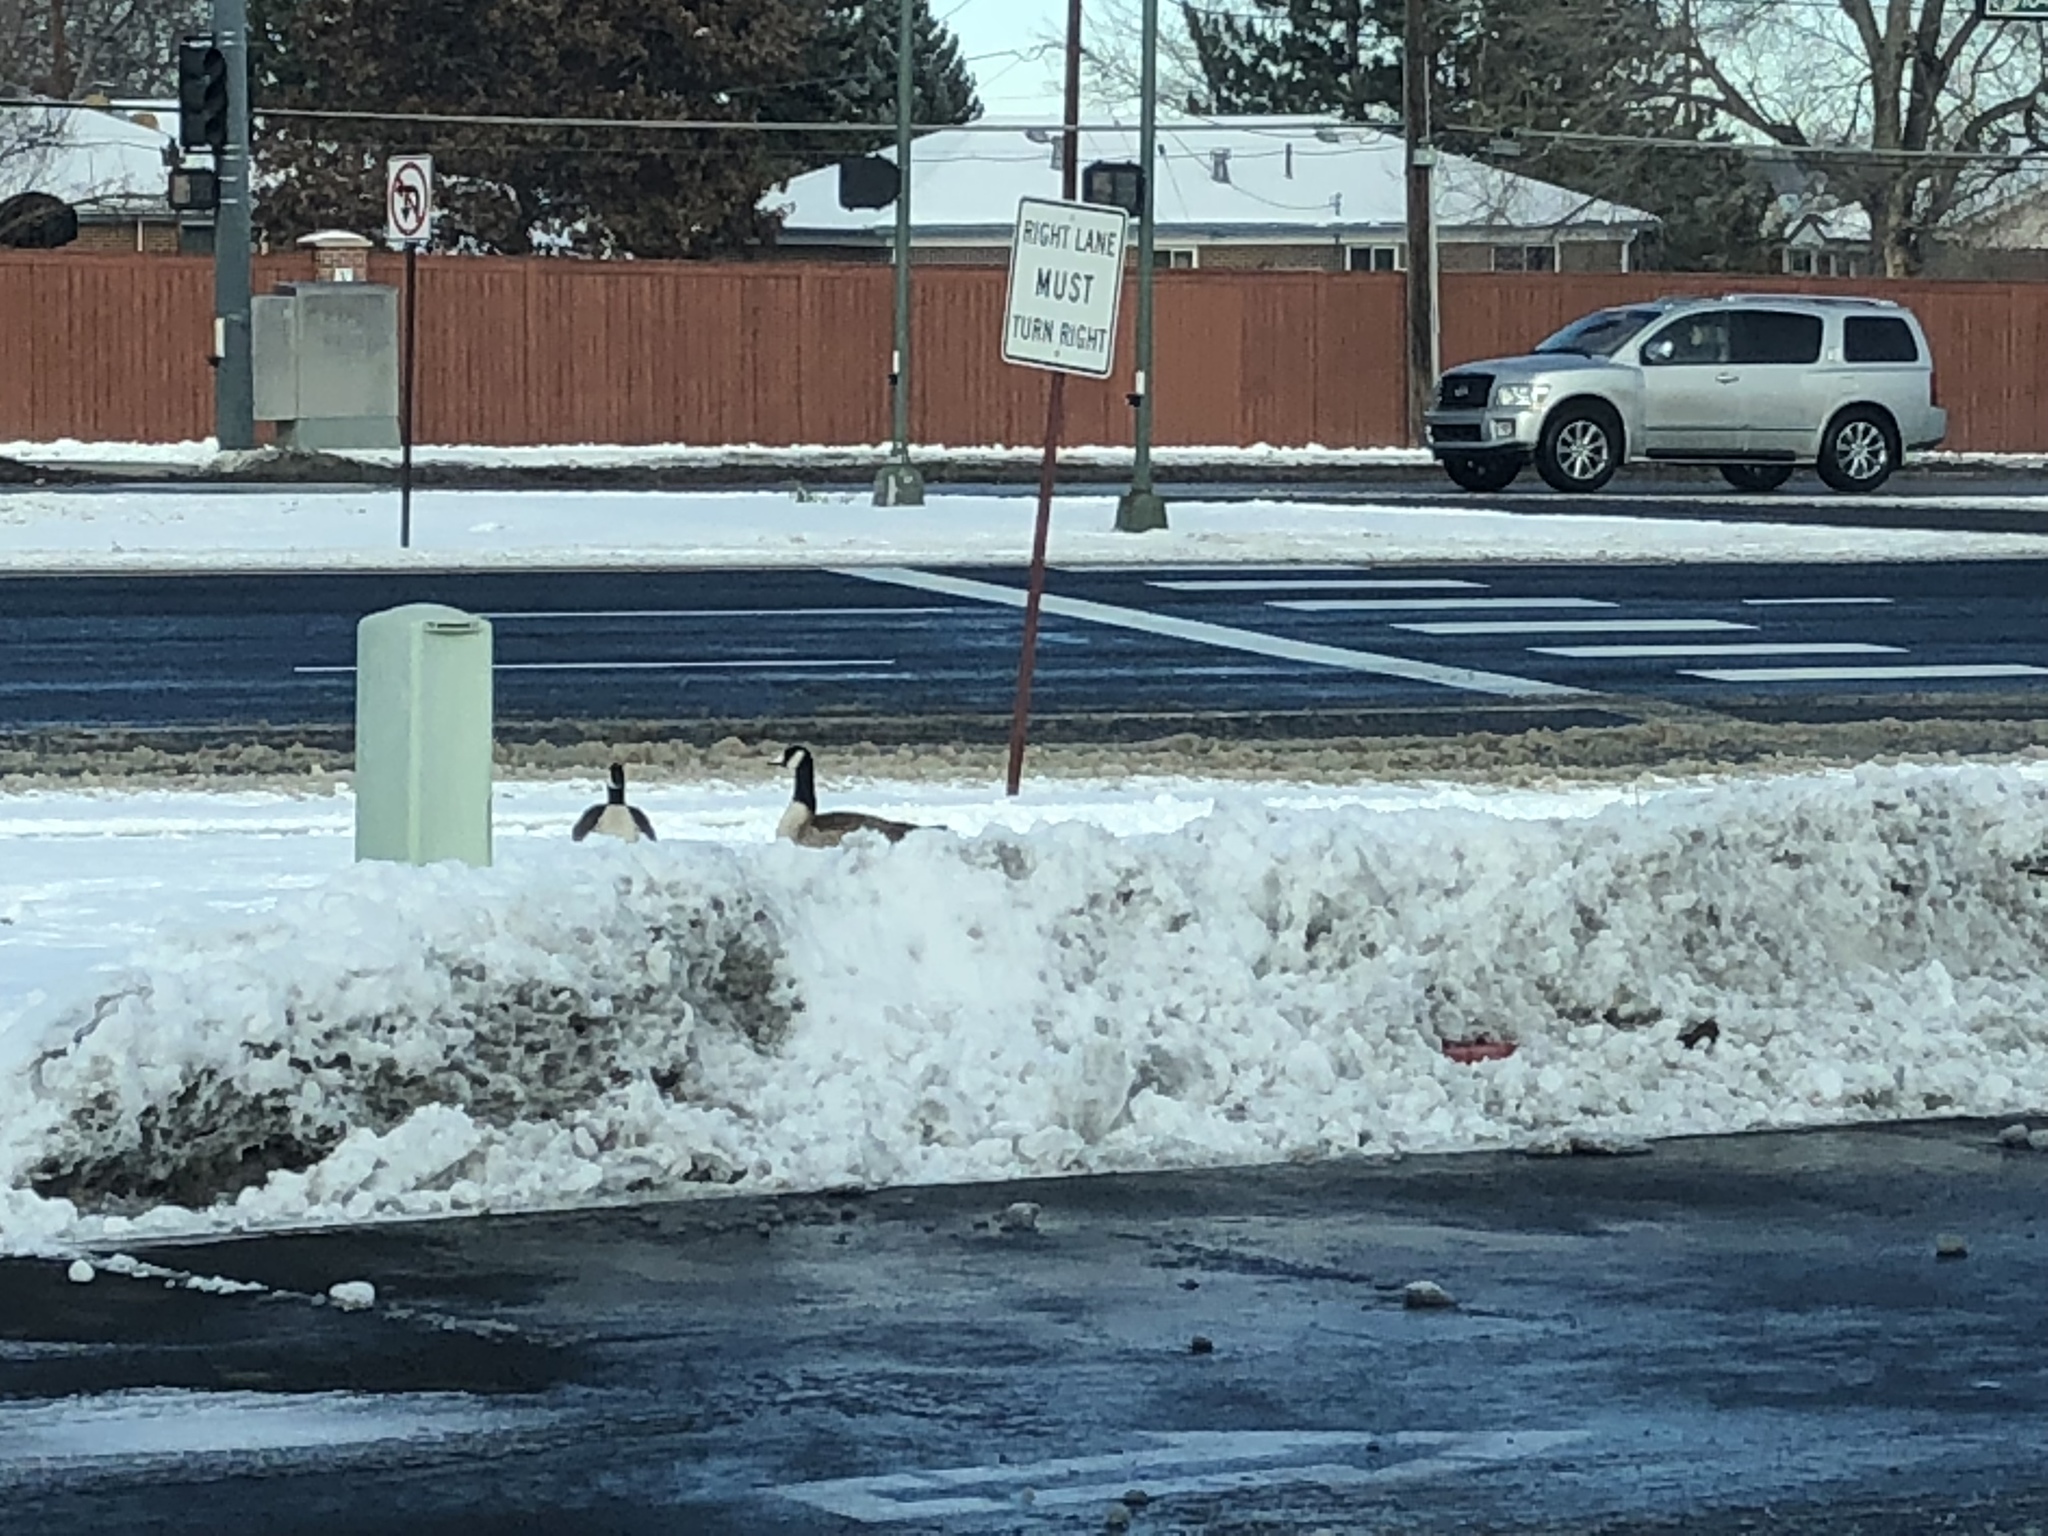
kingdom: Animalia
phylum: Chordata
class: Aves
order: Anseriformes
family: Anatidae
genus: Branta
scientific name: Branta canadensis
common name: Canada goose
